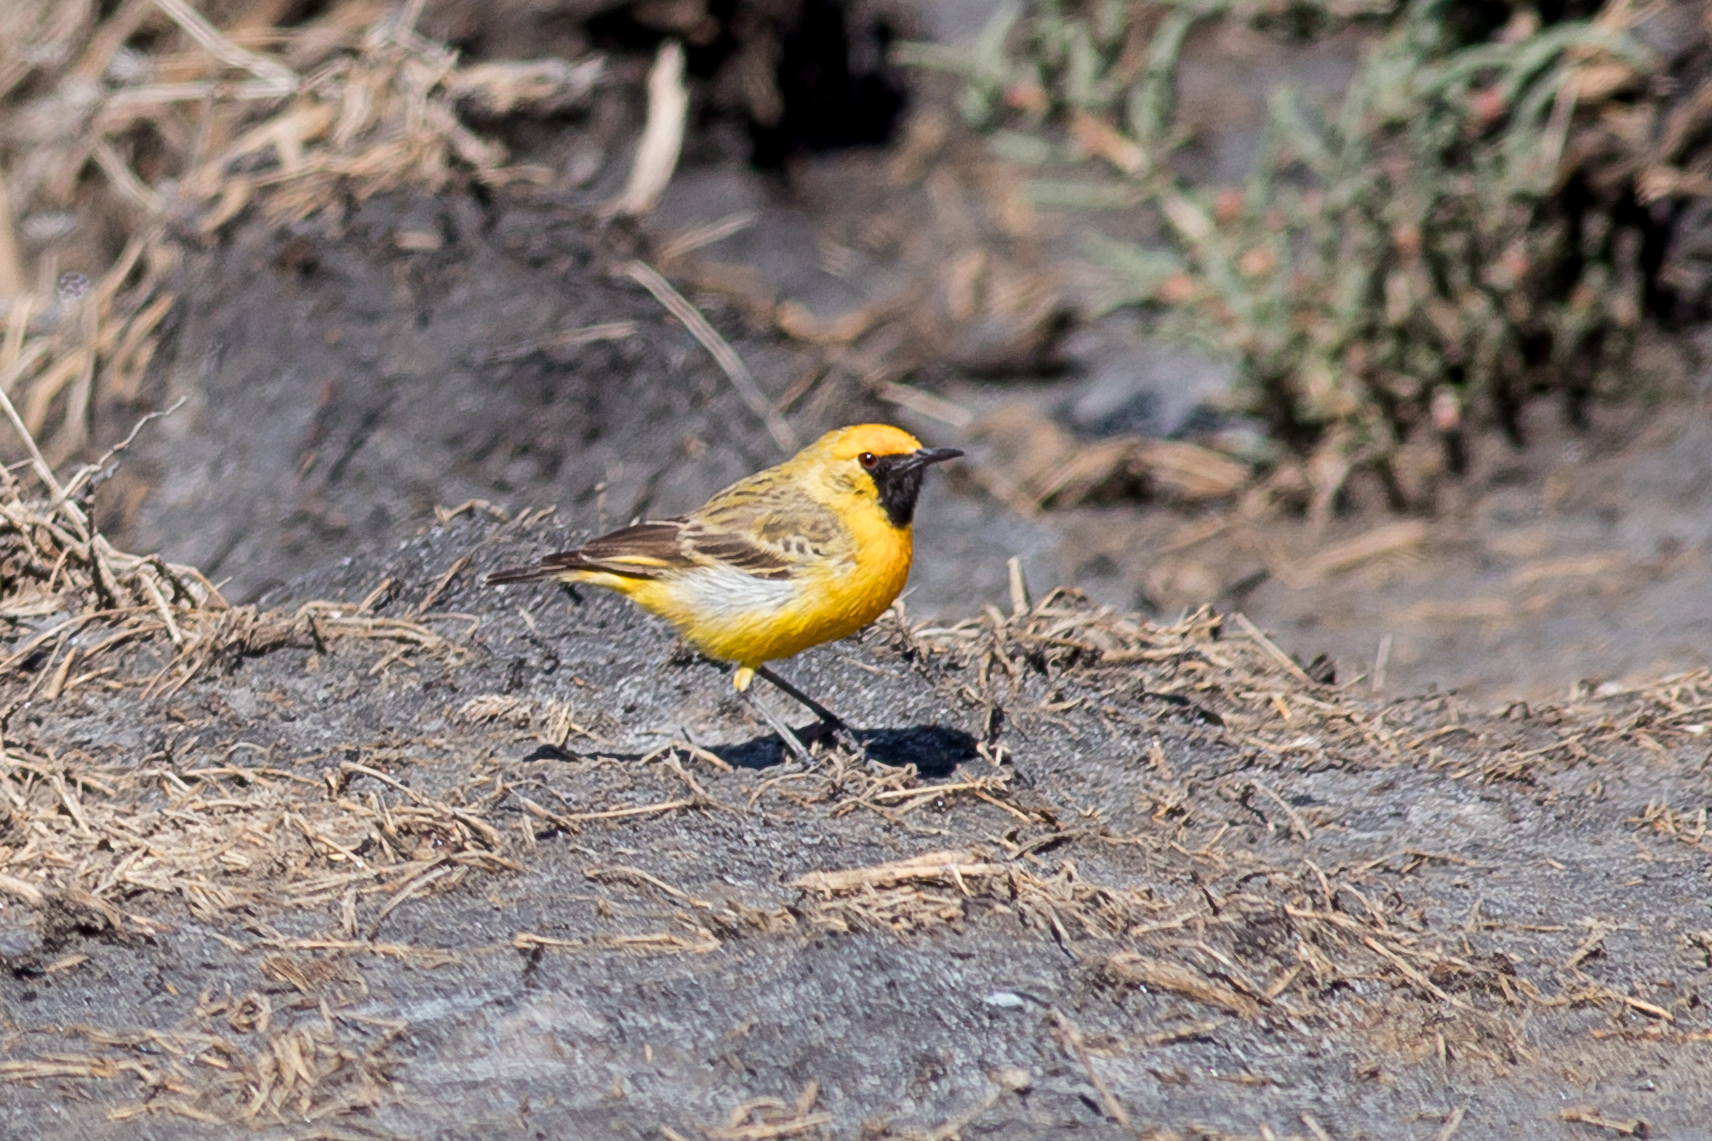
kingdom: Animalia
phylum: Chordata
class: Aves
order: Passeriformes
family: Meliphagidae
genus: Epthianura
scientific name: Epthianura aurifrons
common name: Orange chat
